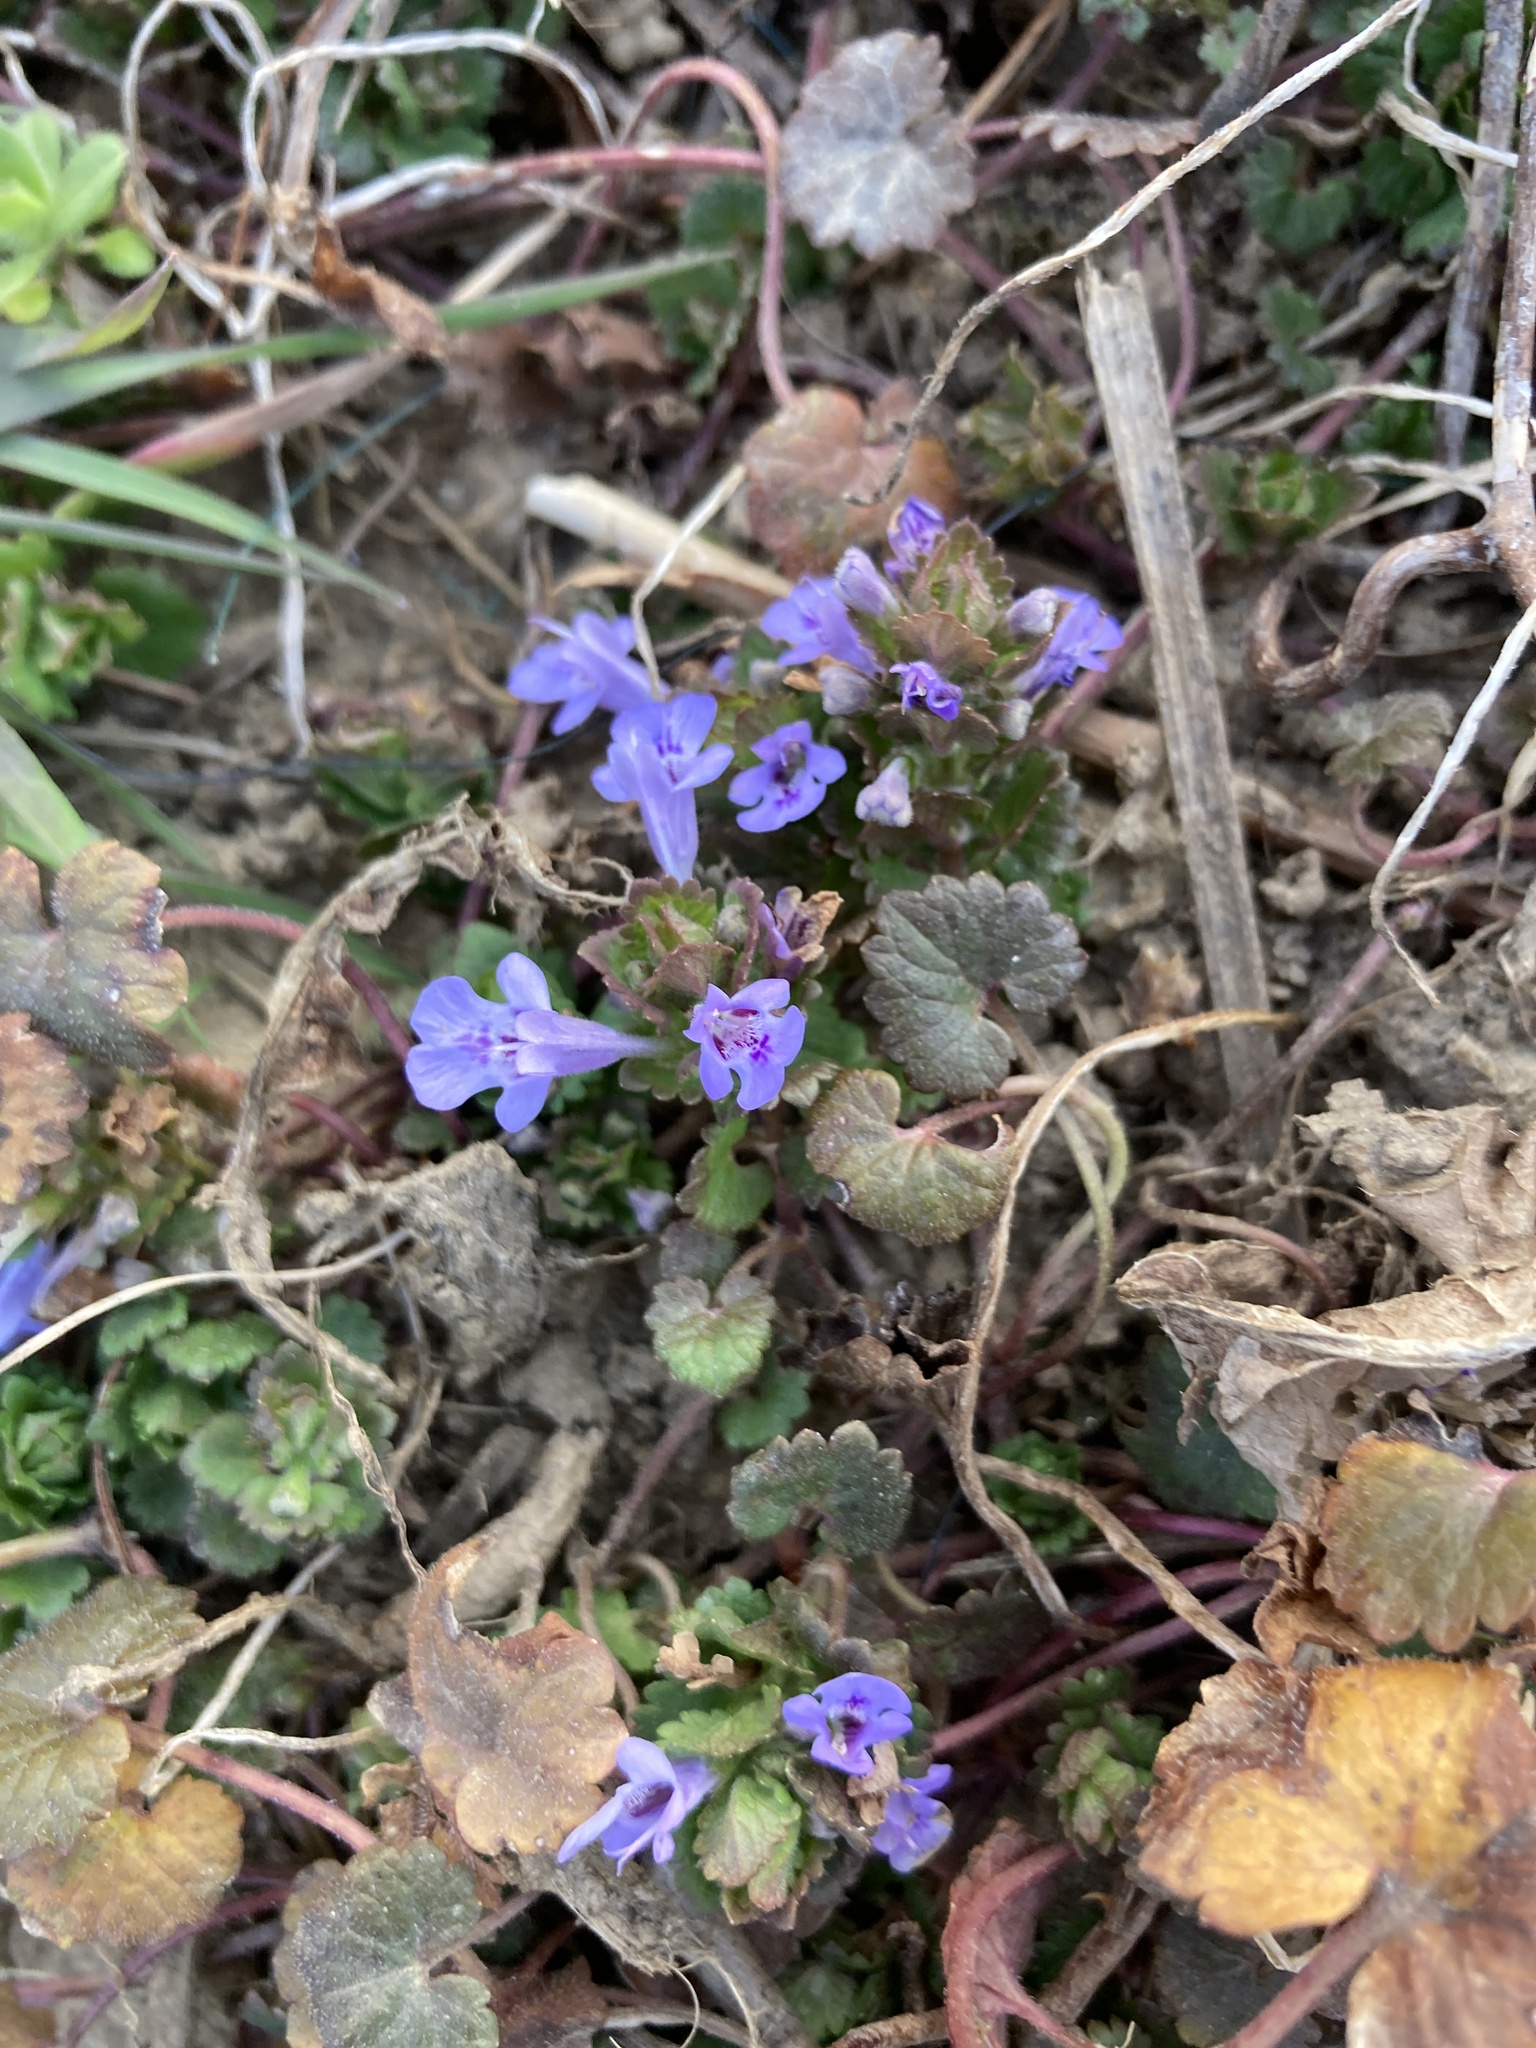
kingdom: Plantae
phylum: Tracheophyta
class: Magnoliopsida
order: Lamiales
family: Lamiaceae
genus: Glechoma
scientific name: Glechoma hederacea
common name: Ground ivy
